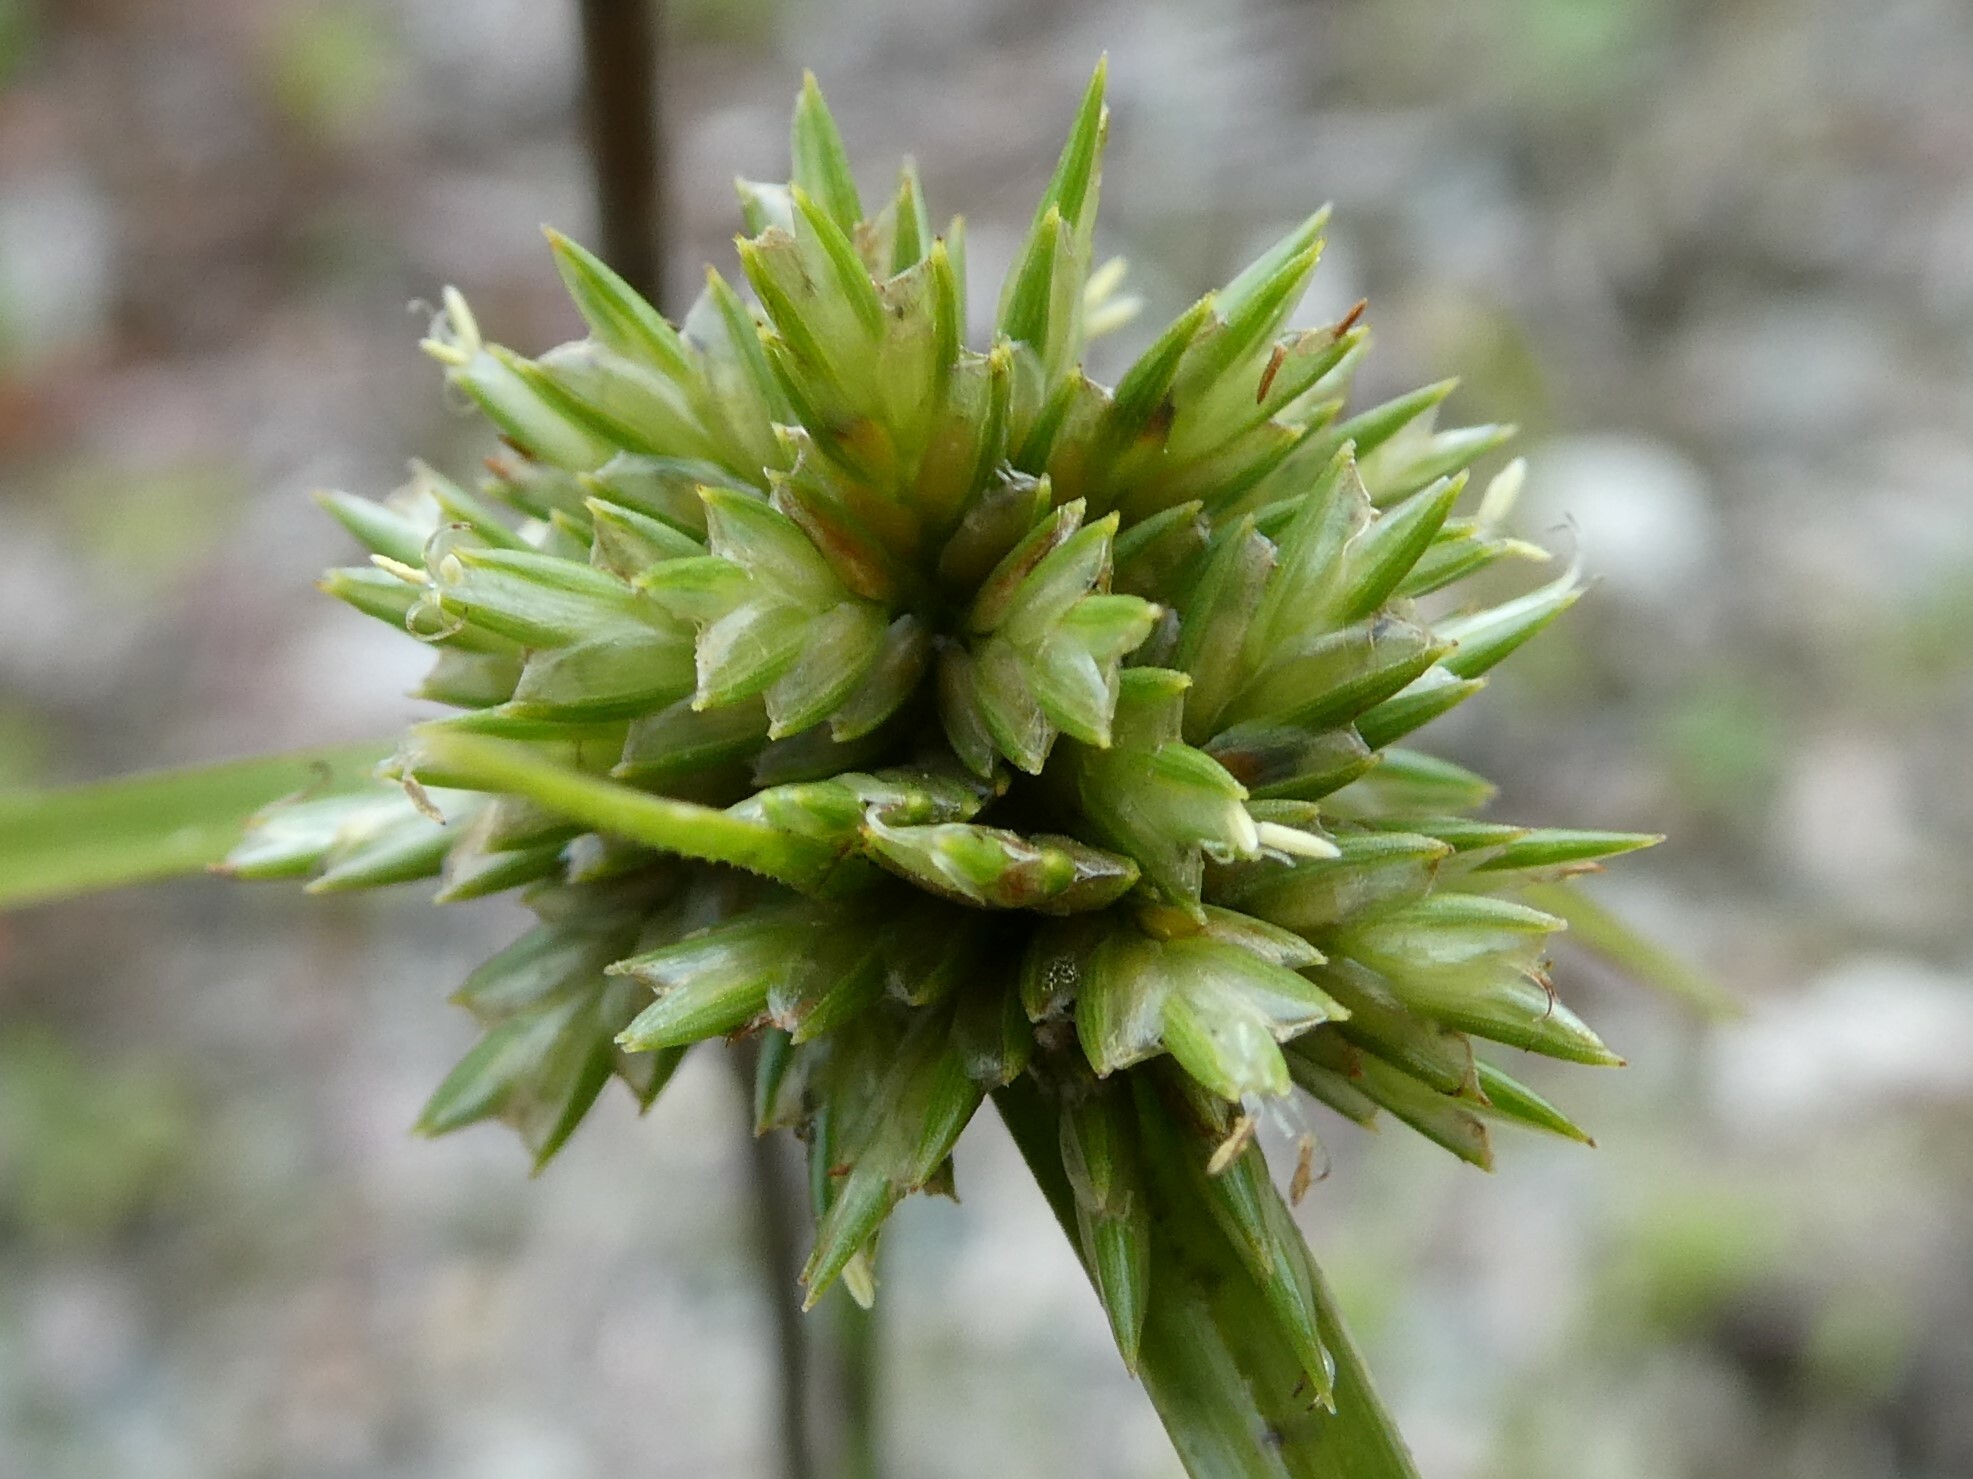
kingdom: Plantae
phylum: Tracheophyta
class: Liliopsida
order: Poales
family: Cyperaceae
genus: Cyperus
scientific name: Cyperus lupulinus
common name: Great plains flatsedge
